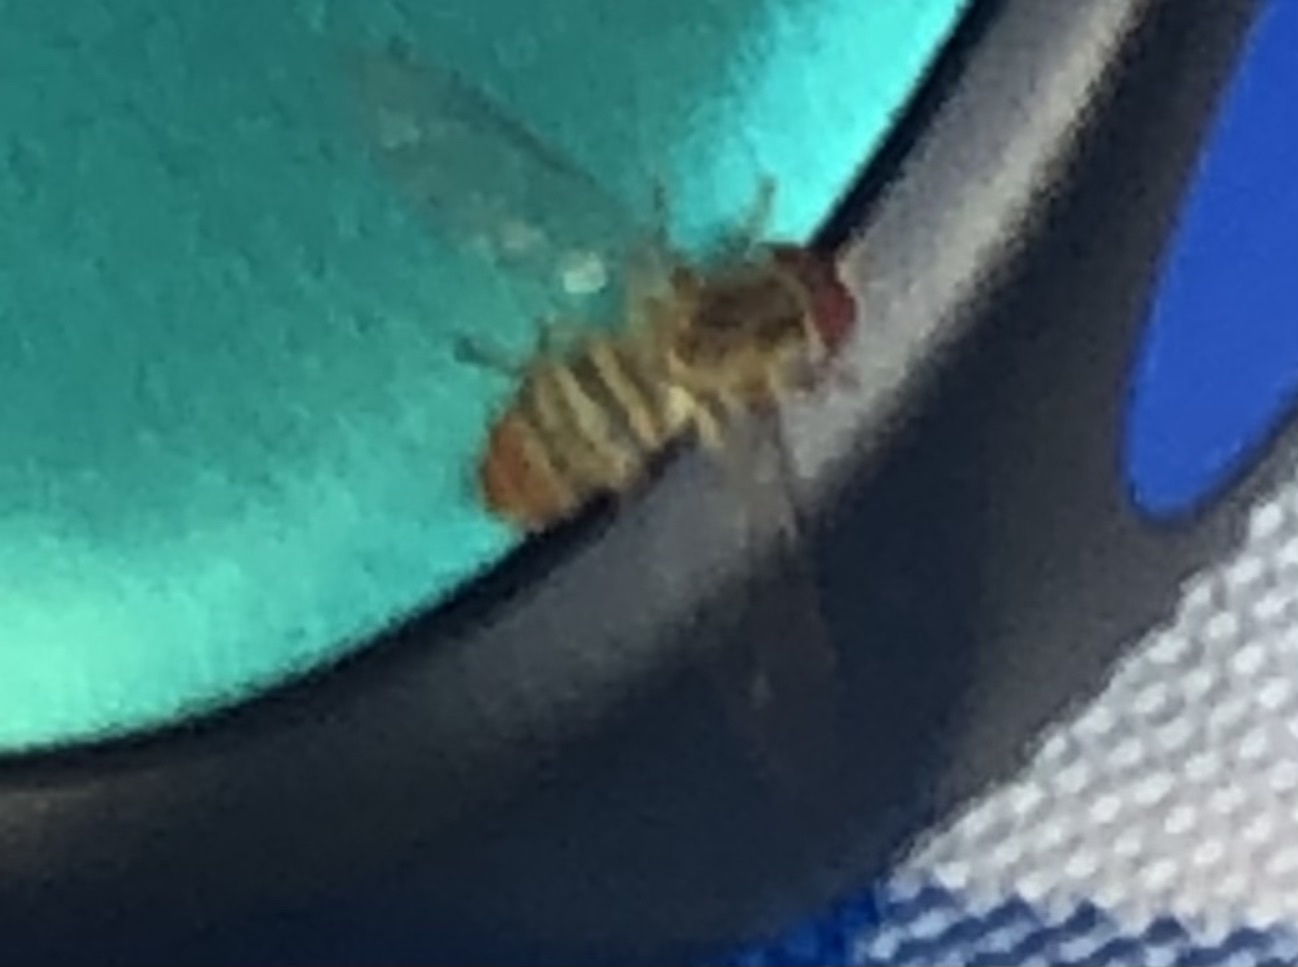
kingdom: Animalia
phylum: Arthropoda
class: Insecta
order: Diptera
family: Syrphidae
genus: Toxomerus
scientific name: Toxomerus politus
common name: Maize calligrapher
